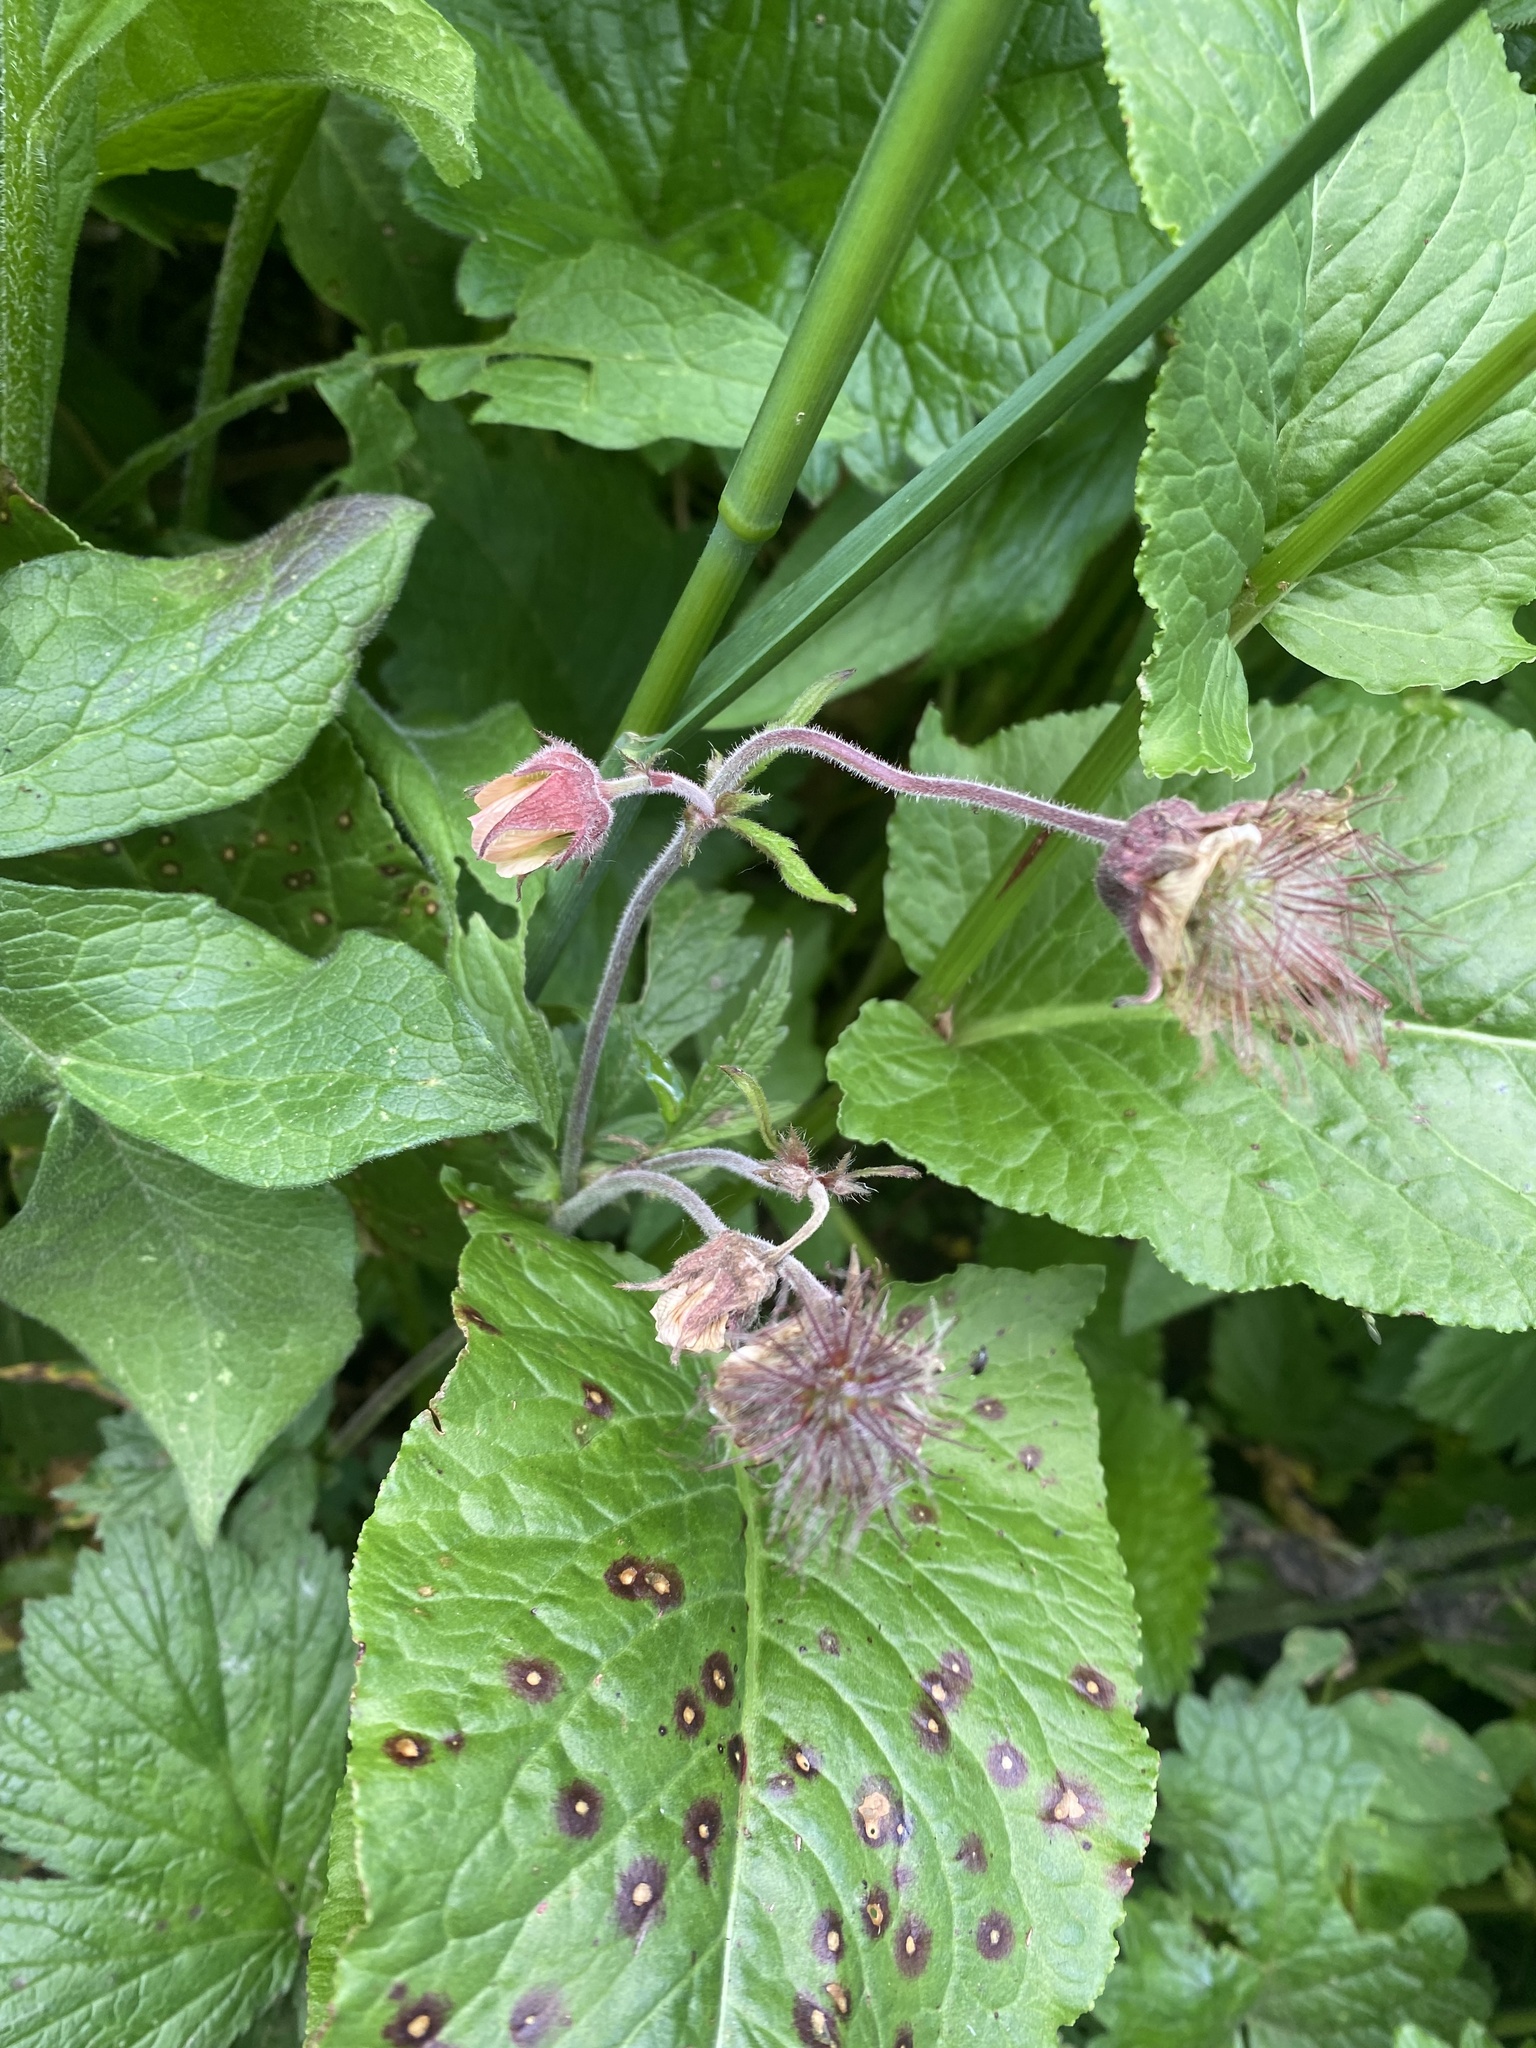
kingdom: Plantae
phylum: Tracheophyta
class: Magnoliopsida
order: Rosales
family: Rosaceae
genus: Geum
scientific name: Geum rivale
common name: Water avens
